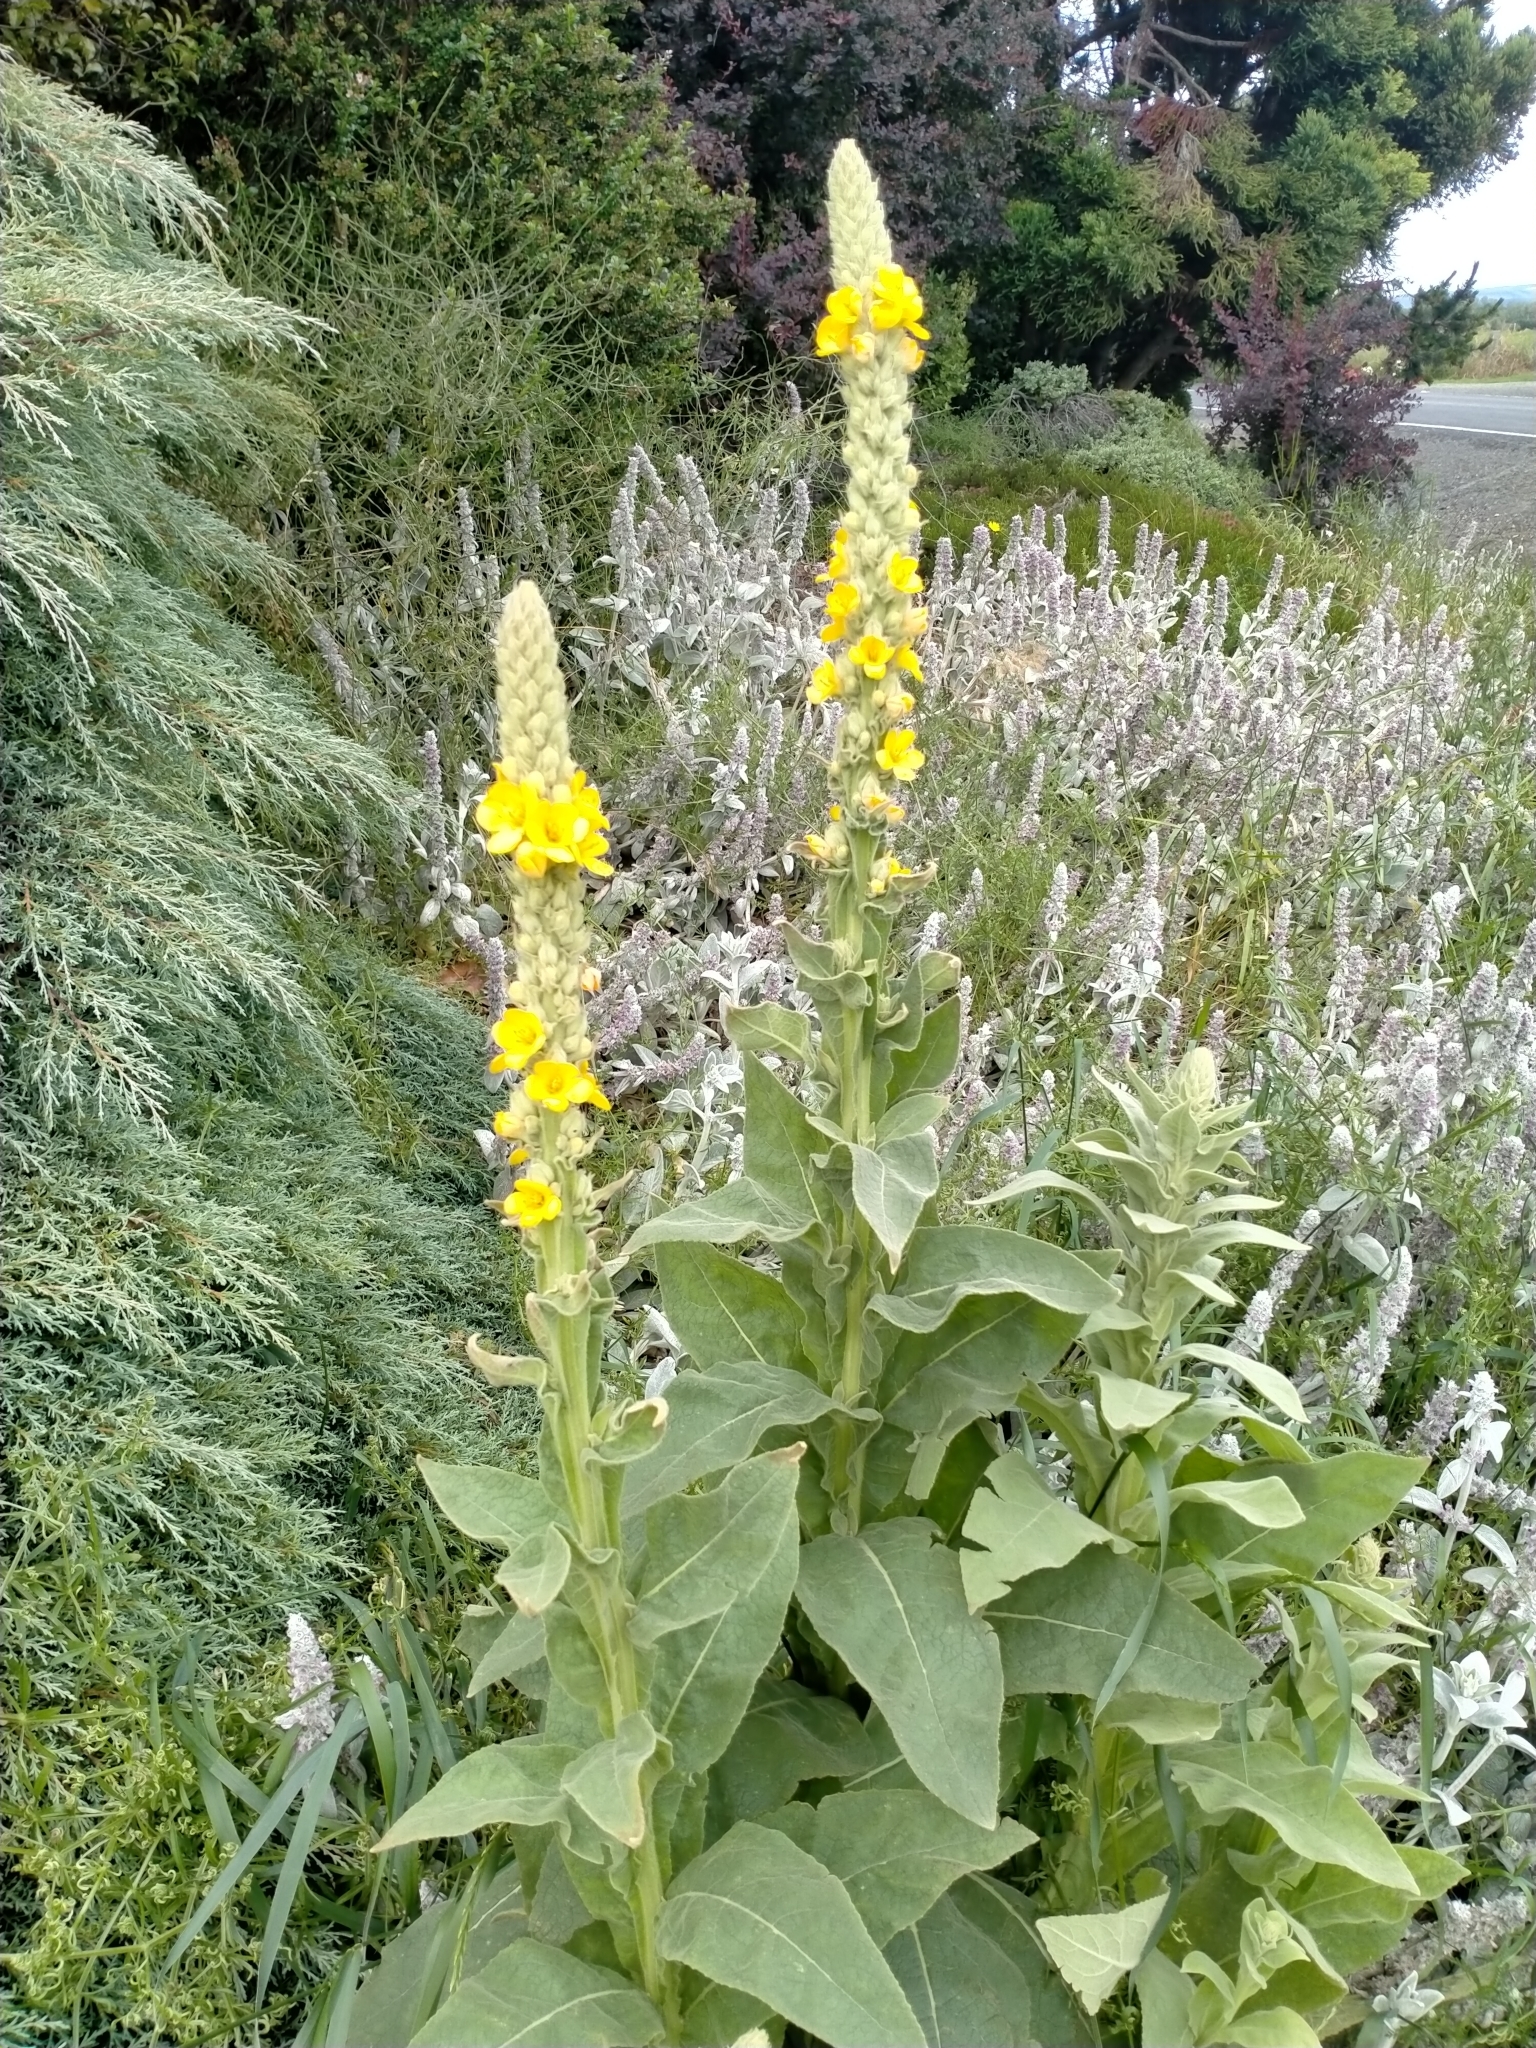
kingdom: Plantae
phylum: Tracheophyta
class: Magnoliopsida
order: Lamiales
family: Scrophulariaceae
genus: Verbascum
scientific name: Verbascum thapsus
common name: Common mullein
